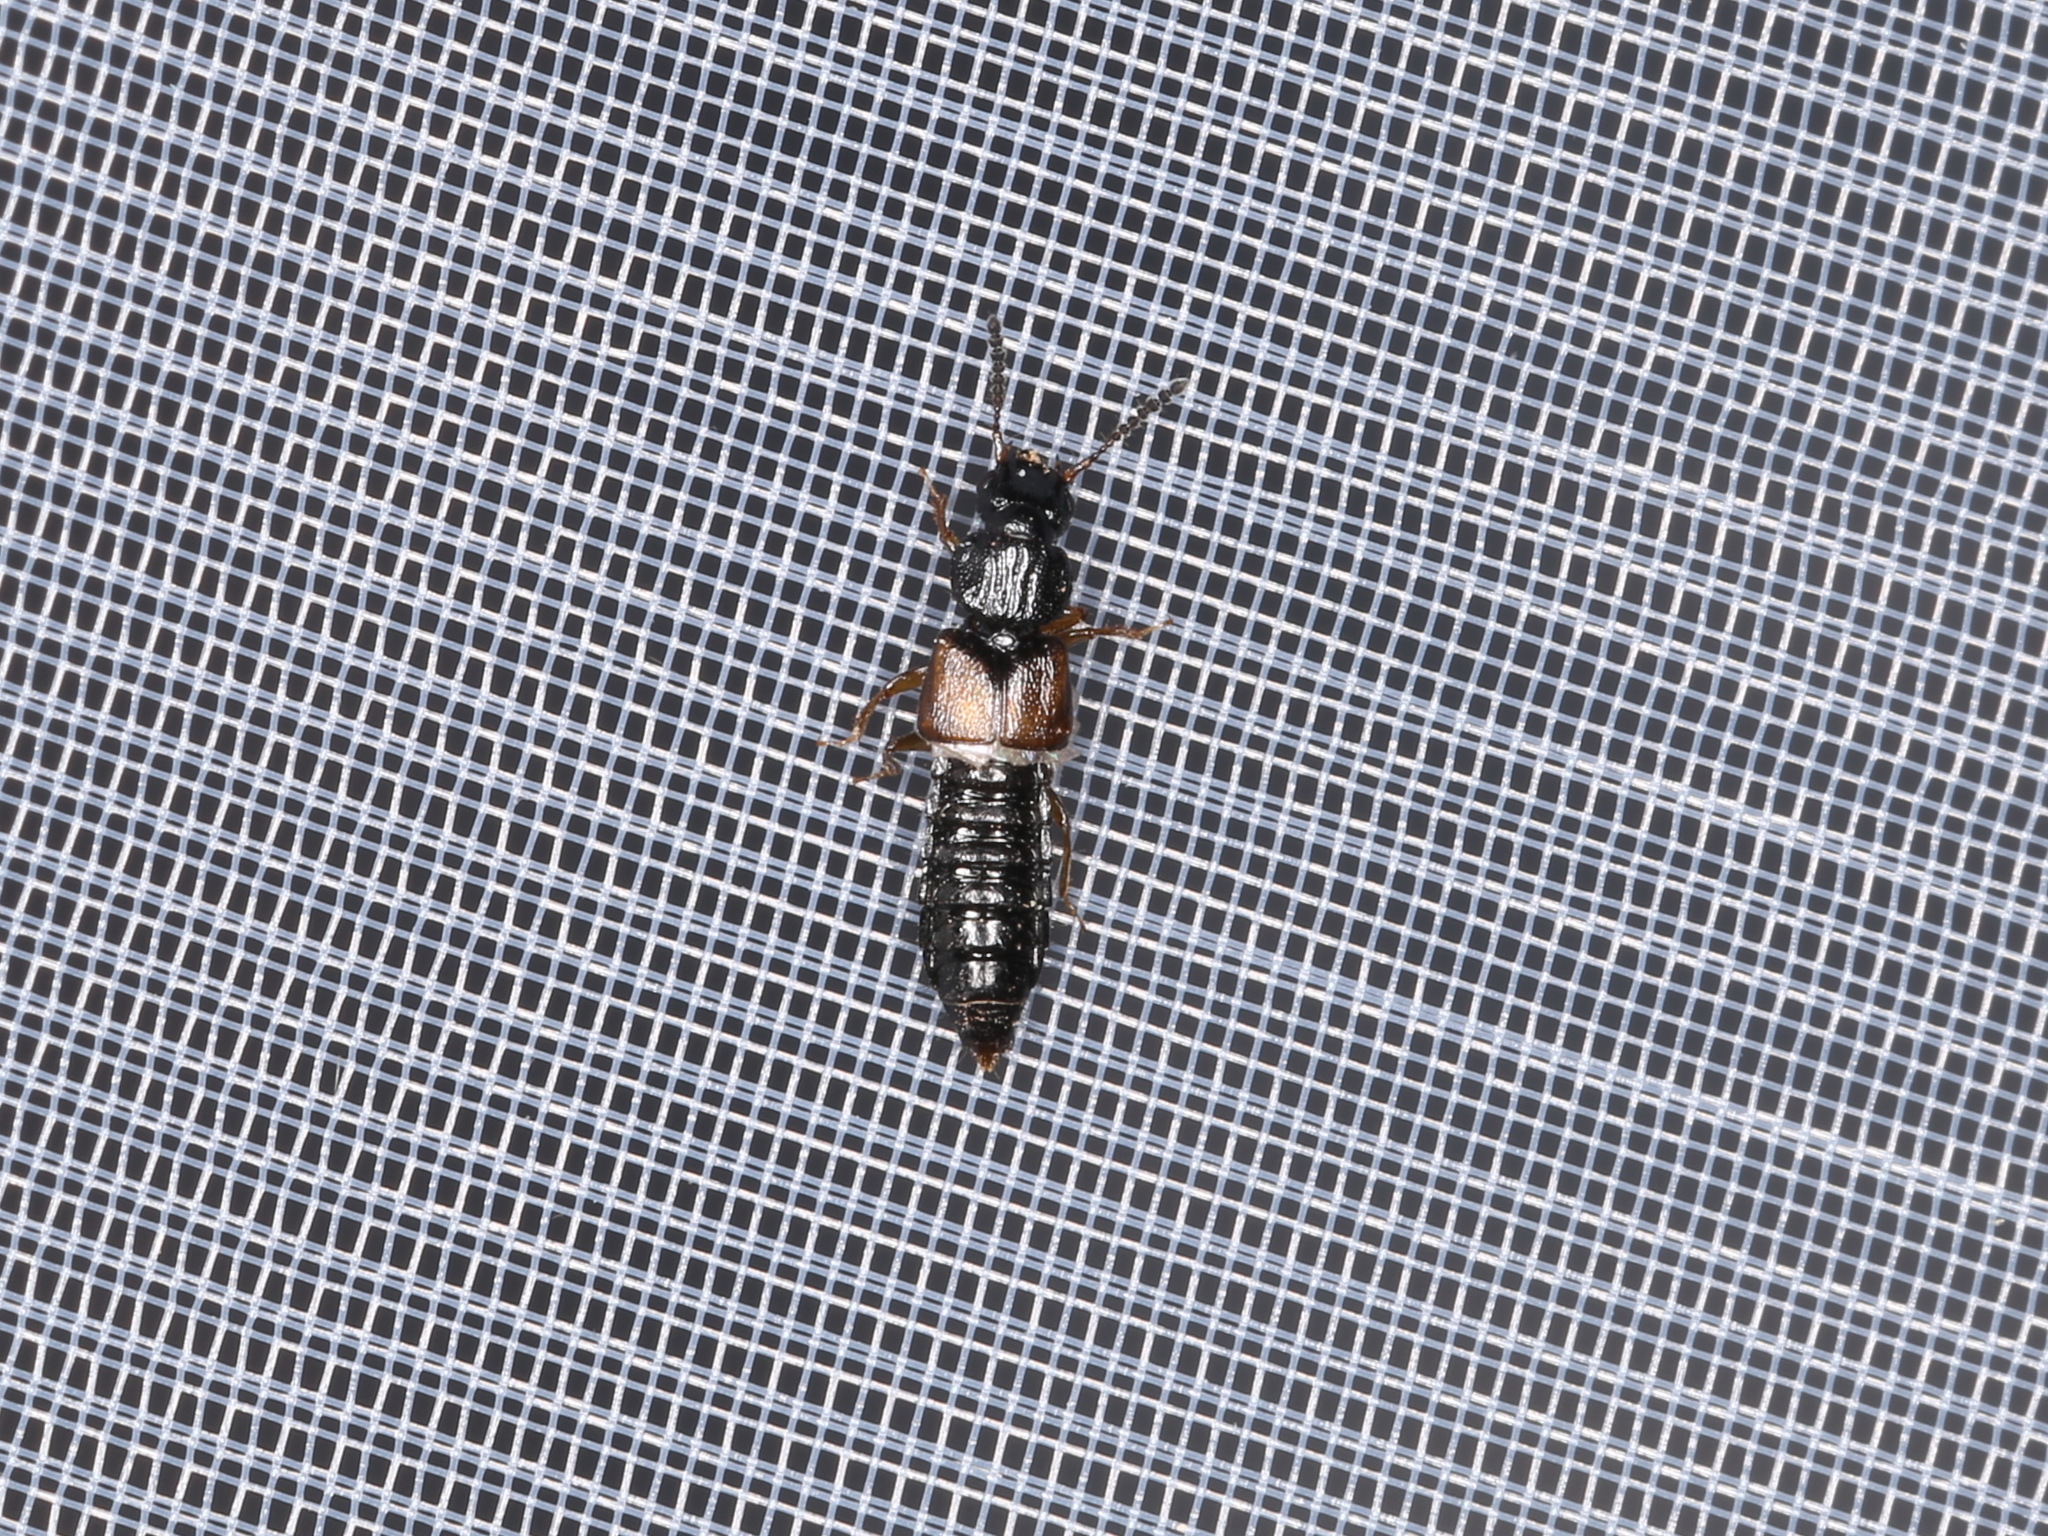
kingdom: Animalia
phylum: Arthropoda
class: Insecta
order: Coleoptera
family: Staphylinidae
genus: Oxytelus
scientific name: Oxytelus laqueatus
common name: Rove beetle
